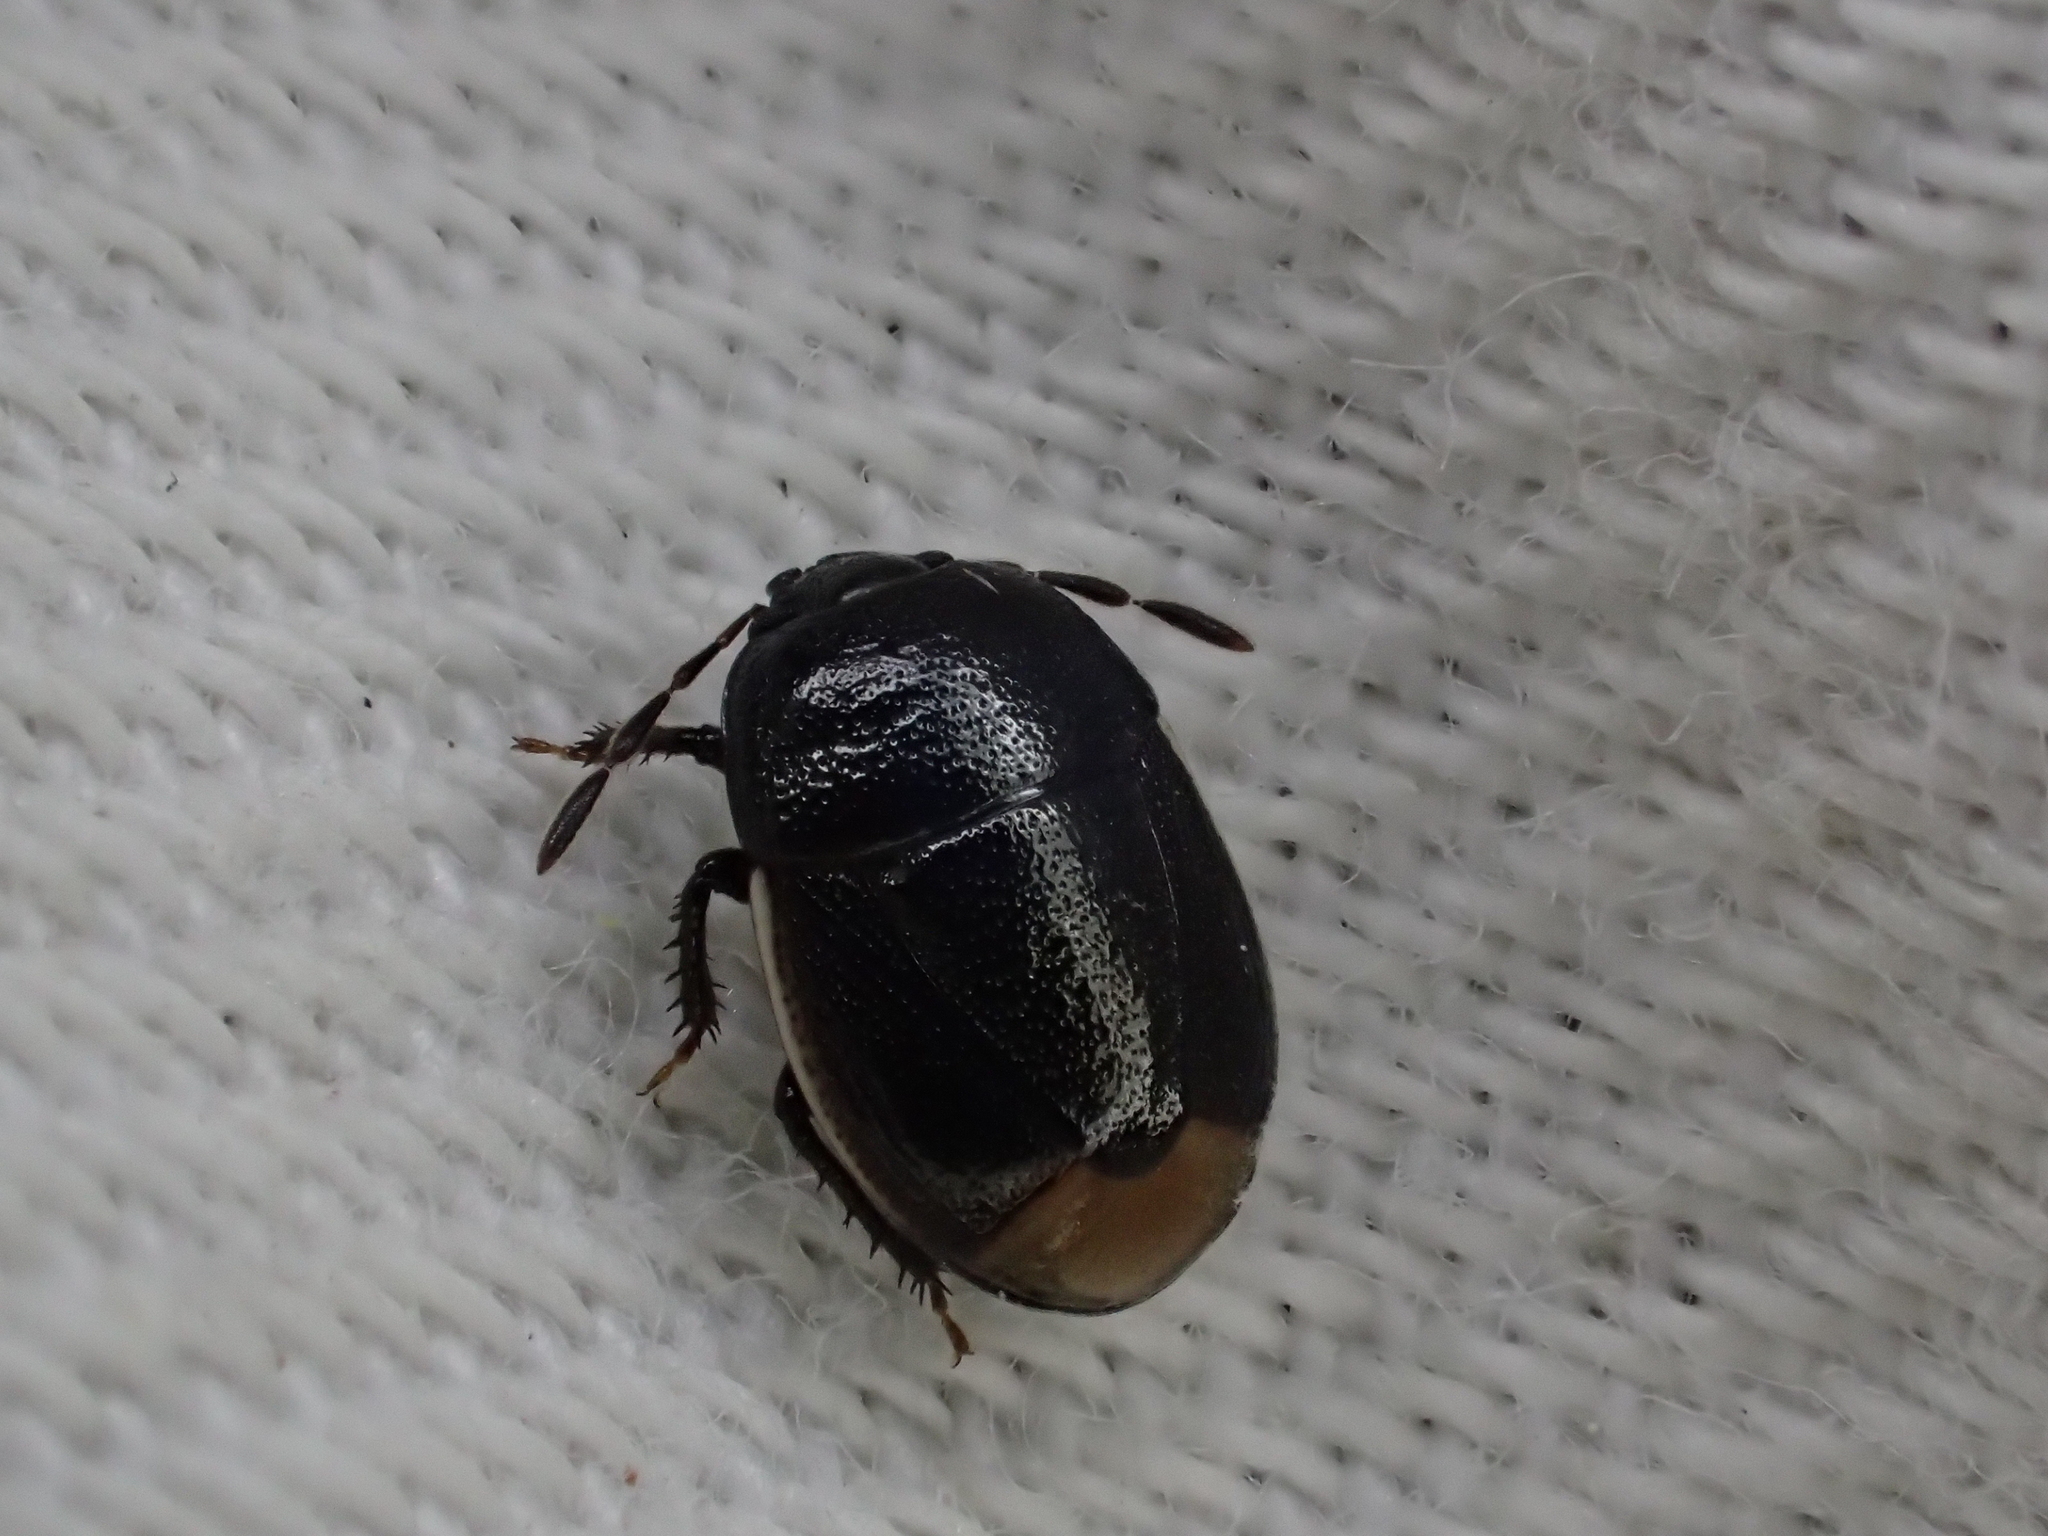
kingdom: Animalia
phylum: Arthropoda
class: Insecta
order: Hemiptera
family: Cydnidae
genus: Legnotus
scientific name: Legnotus limbosus
